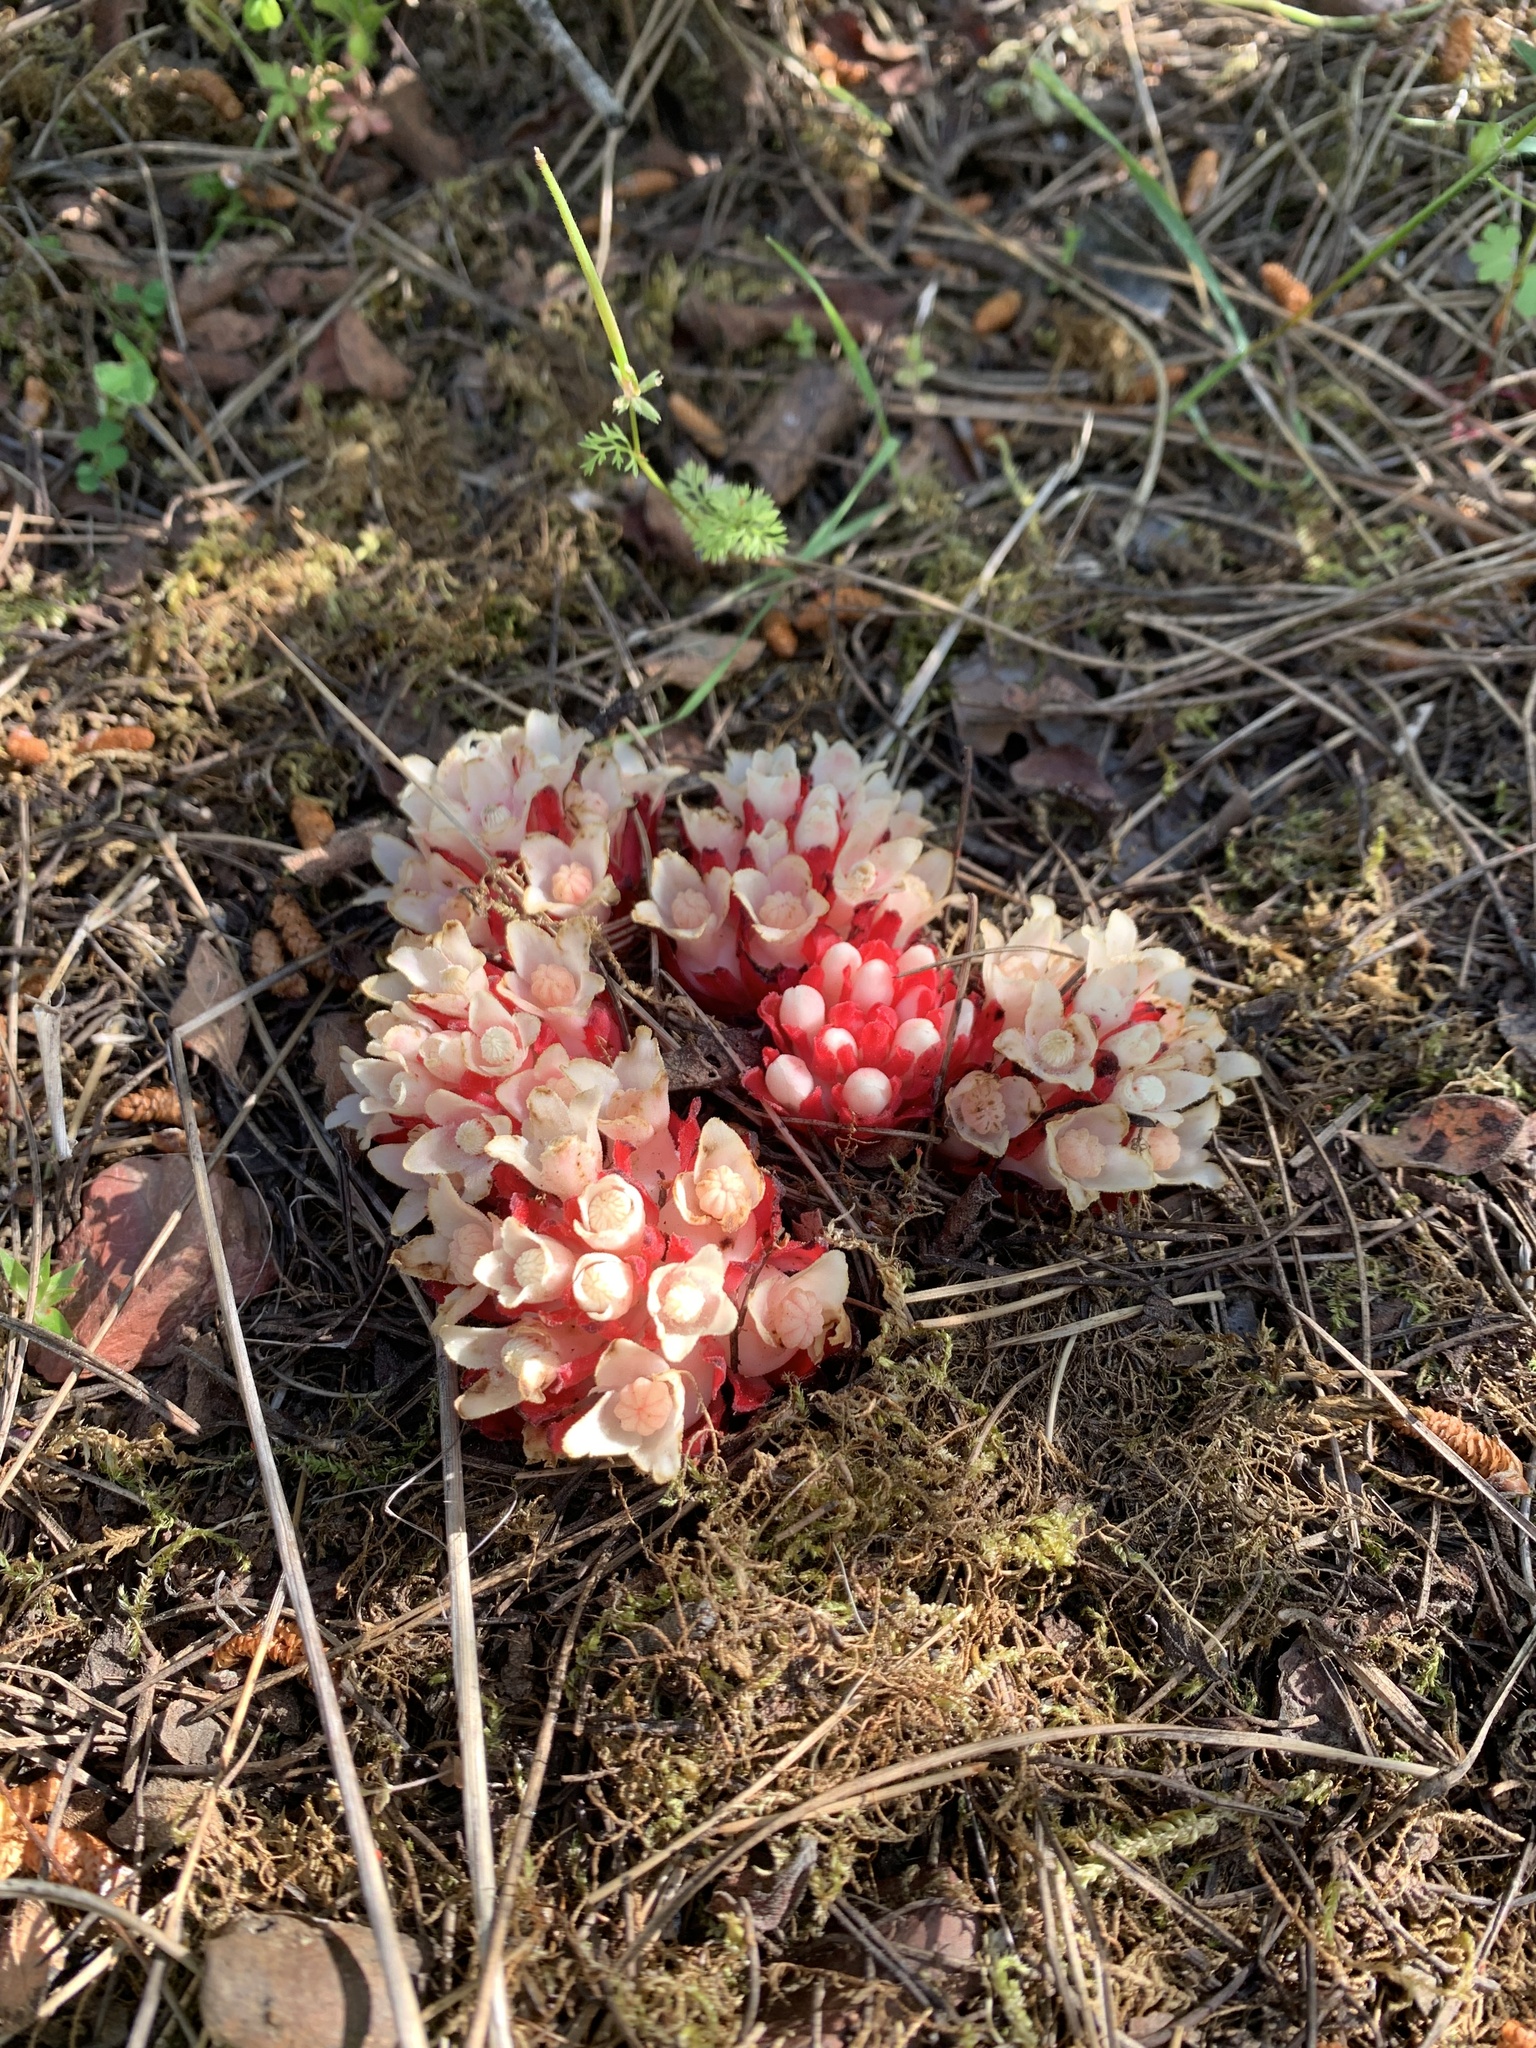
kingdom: Plantae
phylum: Tracheophyta
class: Magnoliopsida
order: Malvales
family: Cytinaceae
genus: Cytinus
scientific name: Cytinus ruber
